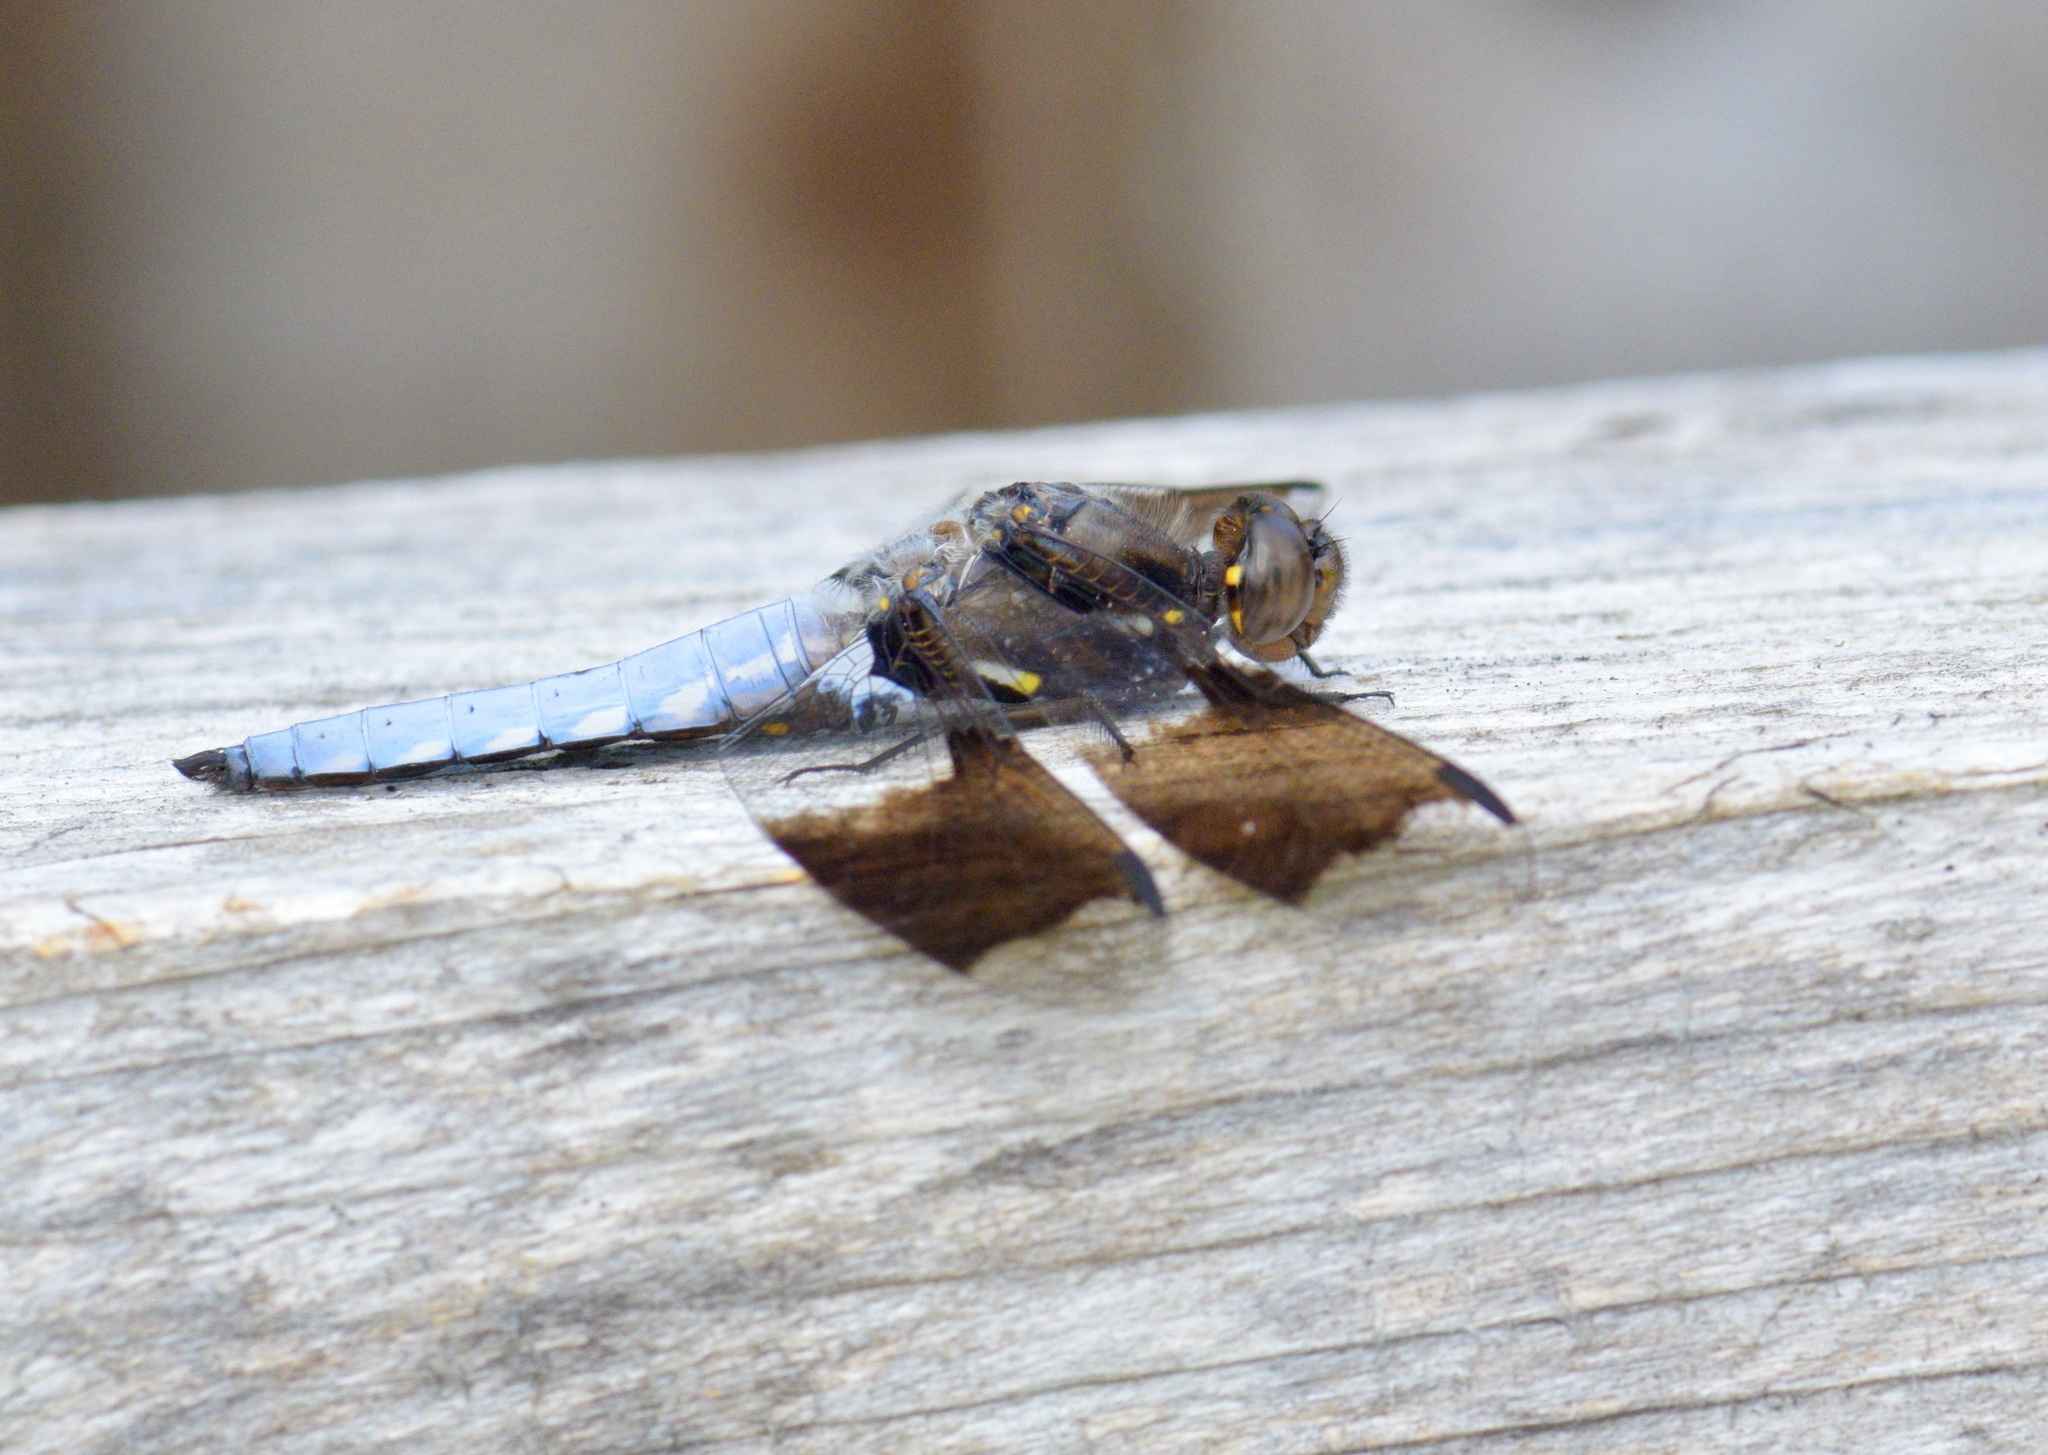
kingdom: Animalia
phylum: Arthropoda
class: Insecta
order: Odonata
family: Libellulidae
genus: Plathemis
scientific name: Plathemis lydia
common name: Common whitetail
